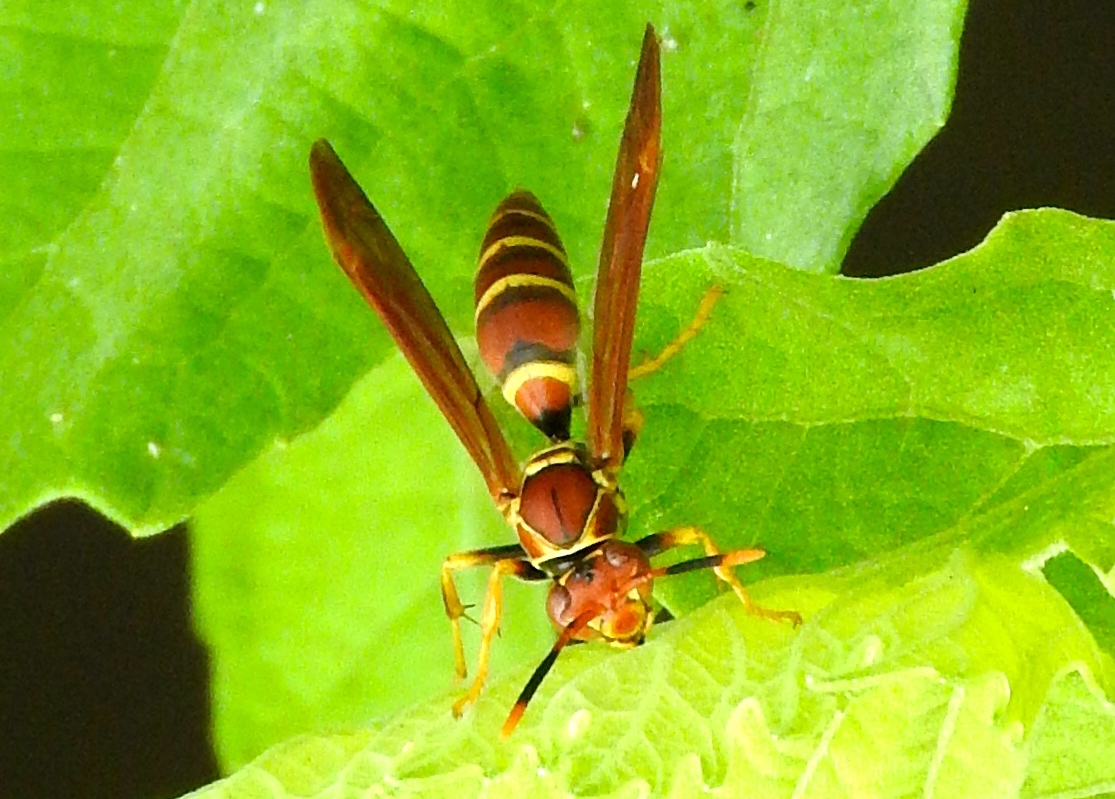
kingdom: Animalia
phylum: Arthropoda
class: Insecta
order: Hymenoptera
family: Eumenidae
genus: Polistes
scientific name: Polistes instabilis
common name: Unstable paper wasp
